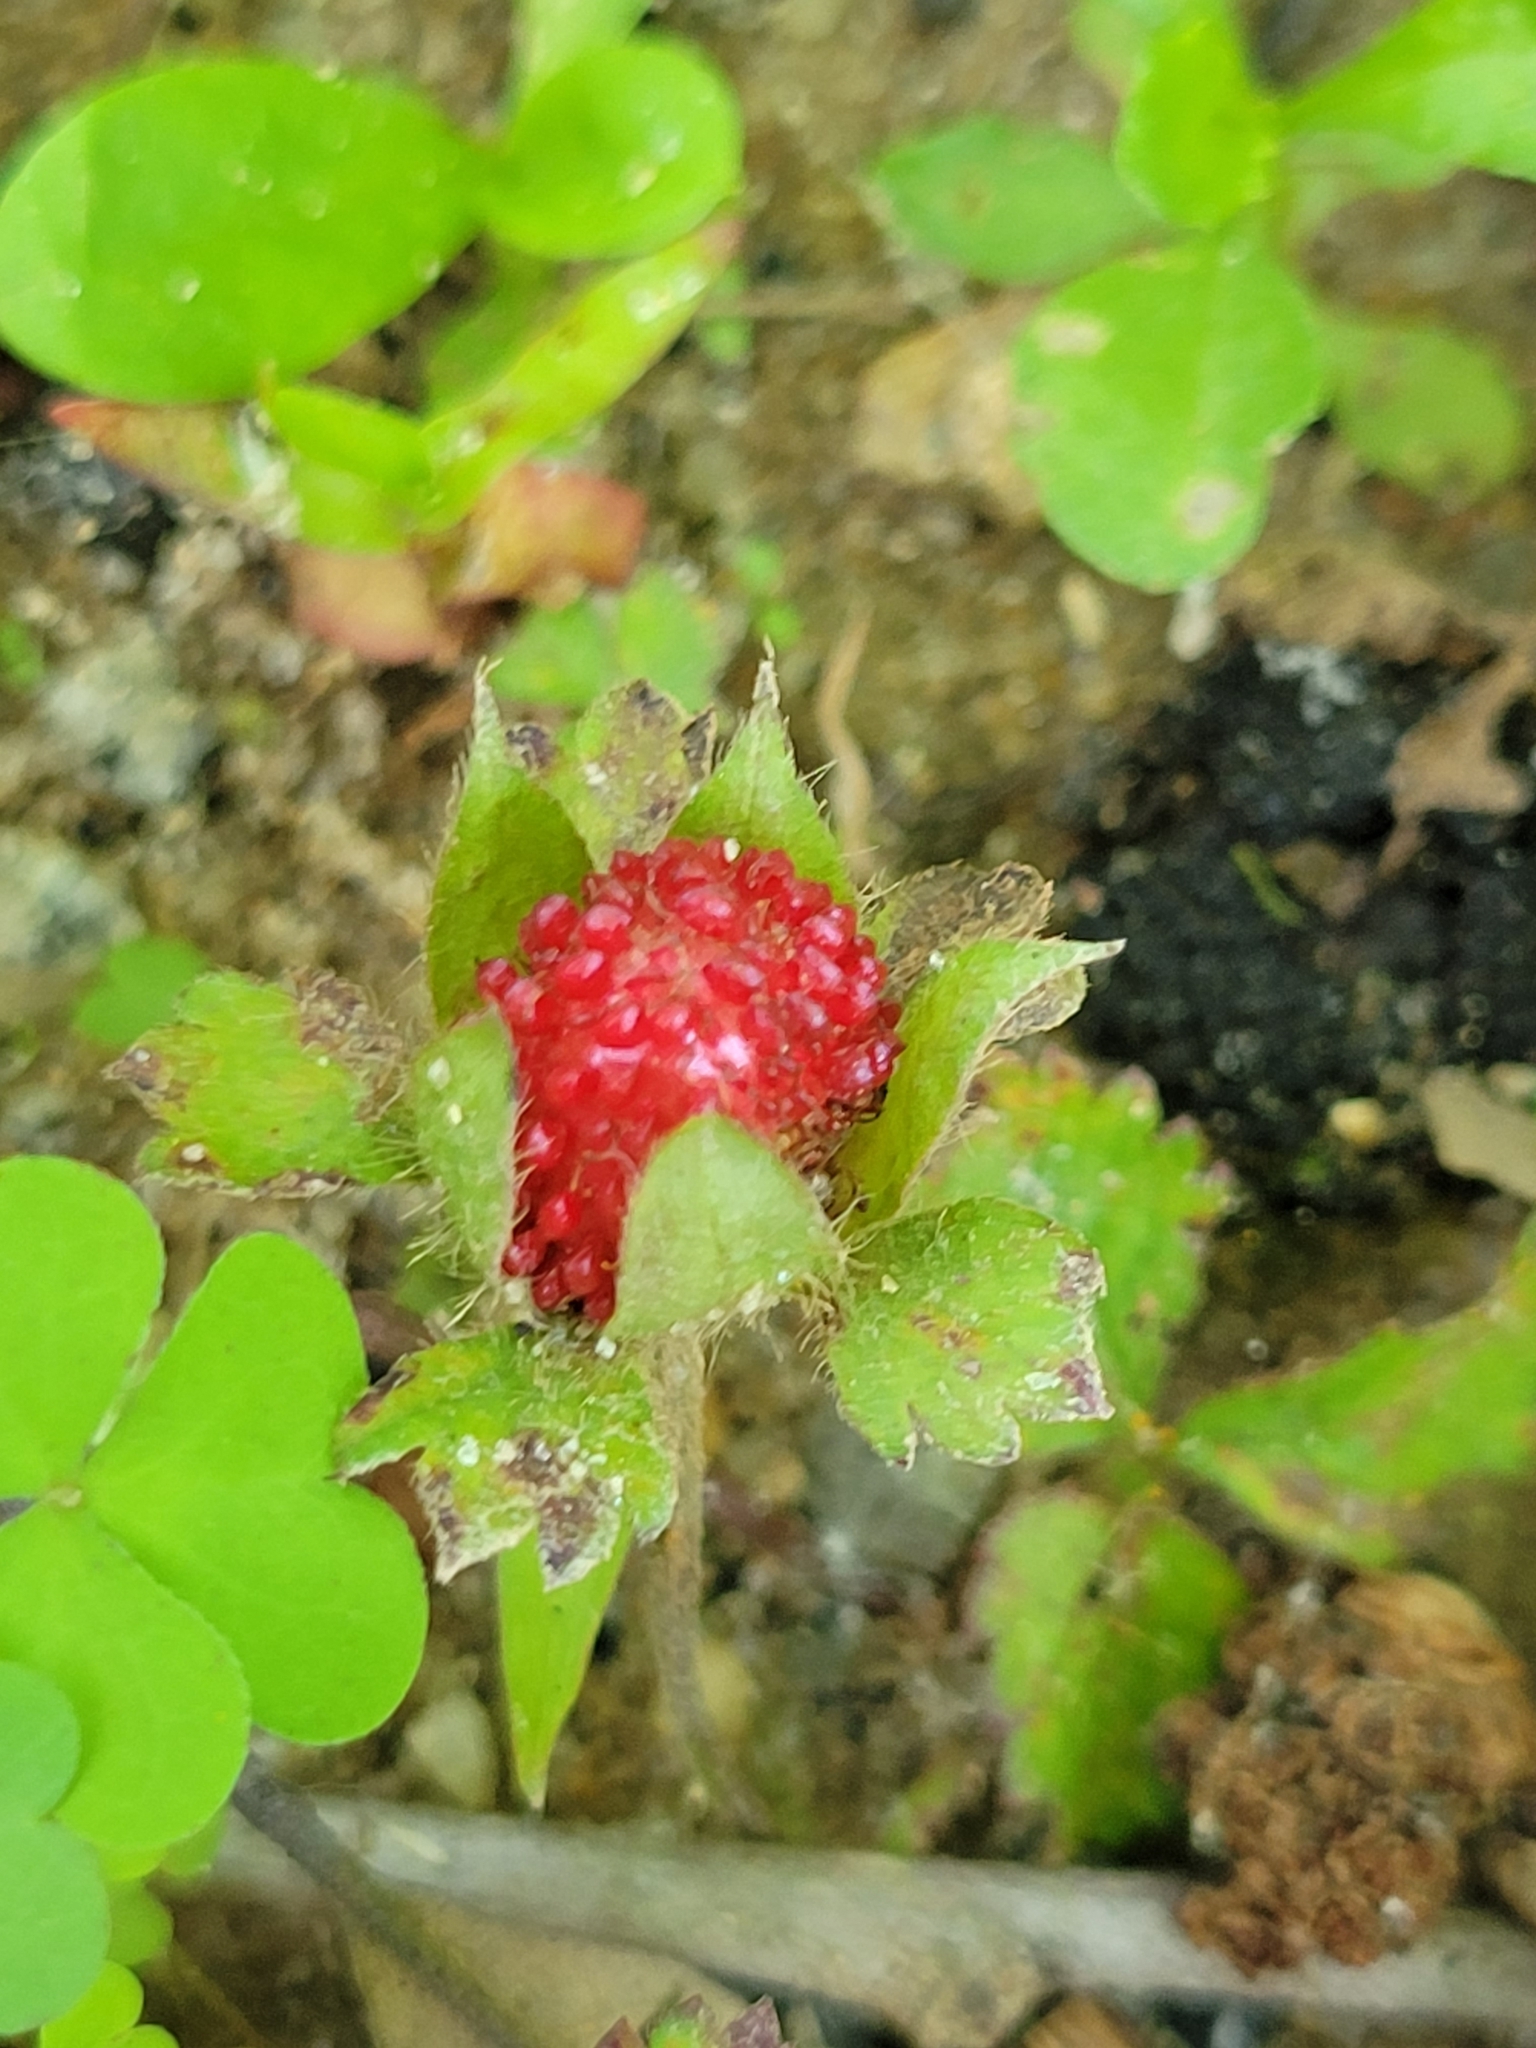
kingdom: Plantae
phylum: Tracheophyta
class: Magnoliopsida
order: Rosales
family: Rosaceae
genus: Potentilla
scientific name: Potentilla indica
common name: Yellow-flowered strawberry
